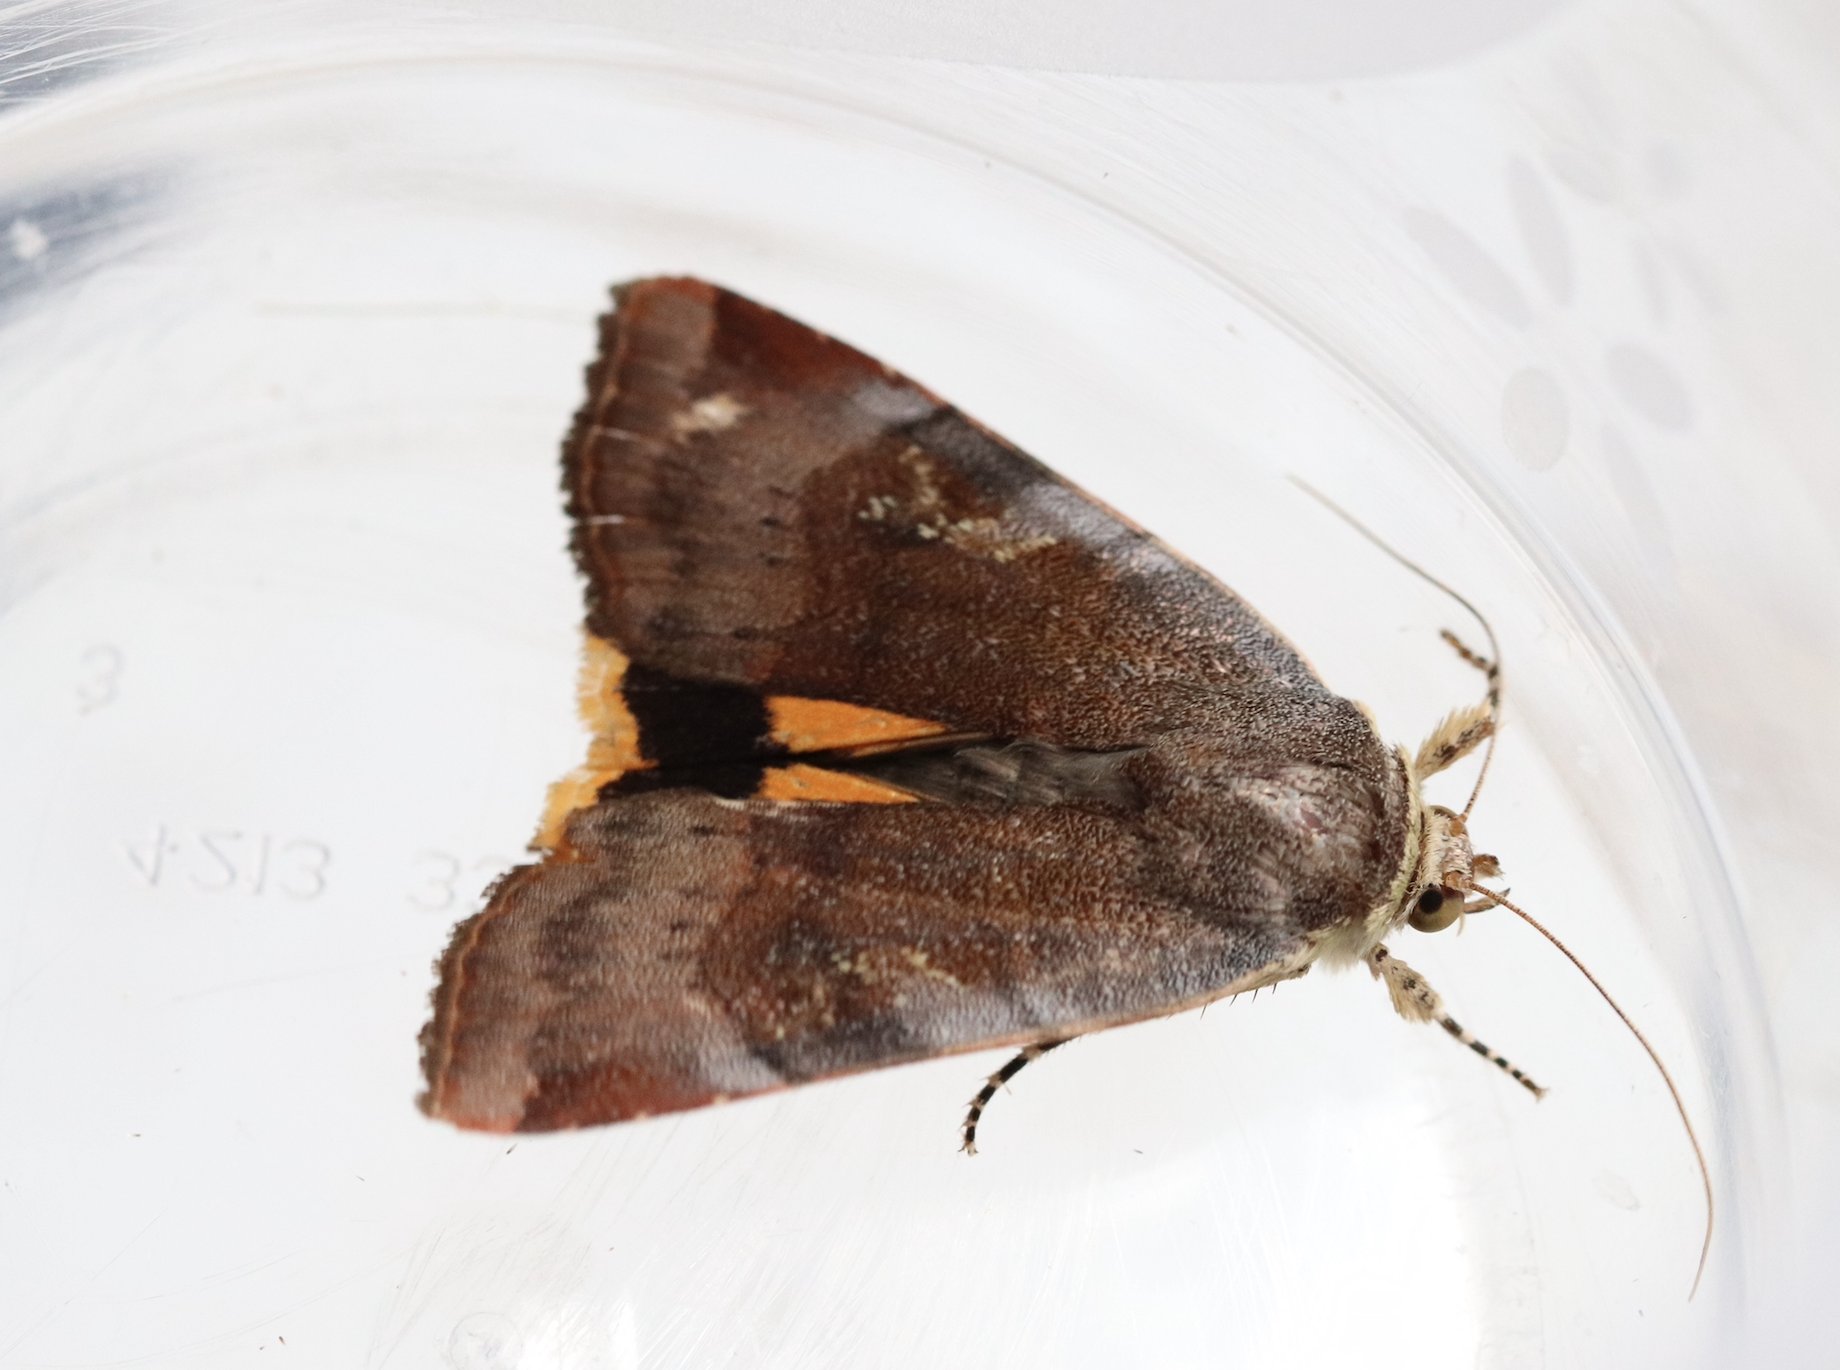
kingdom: Animalia
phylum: Arthropoda
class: Insecta
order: Lepidoptera
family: Noctuidae
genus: Noctua
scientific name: Noctua janthe
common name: Lesser broad-bordered yellow underwing
